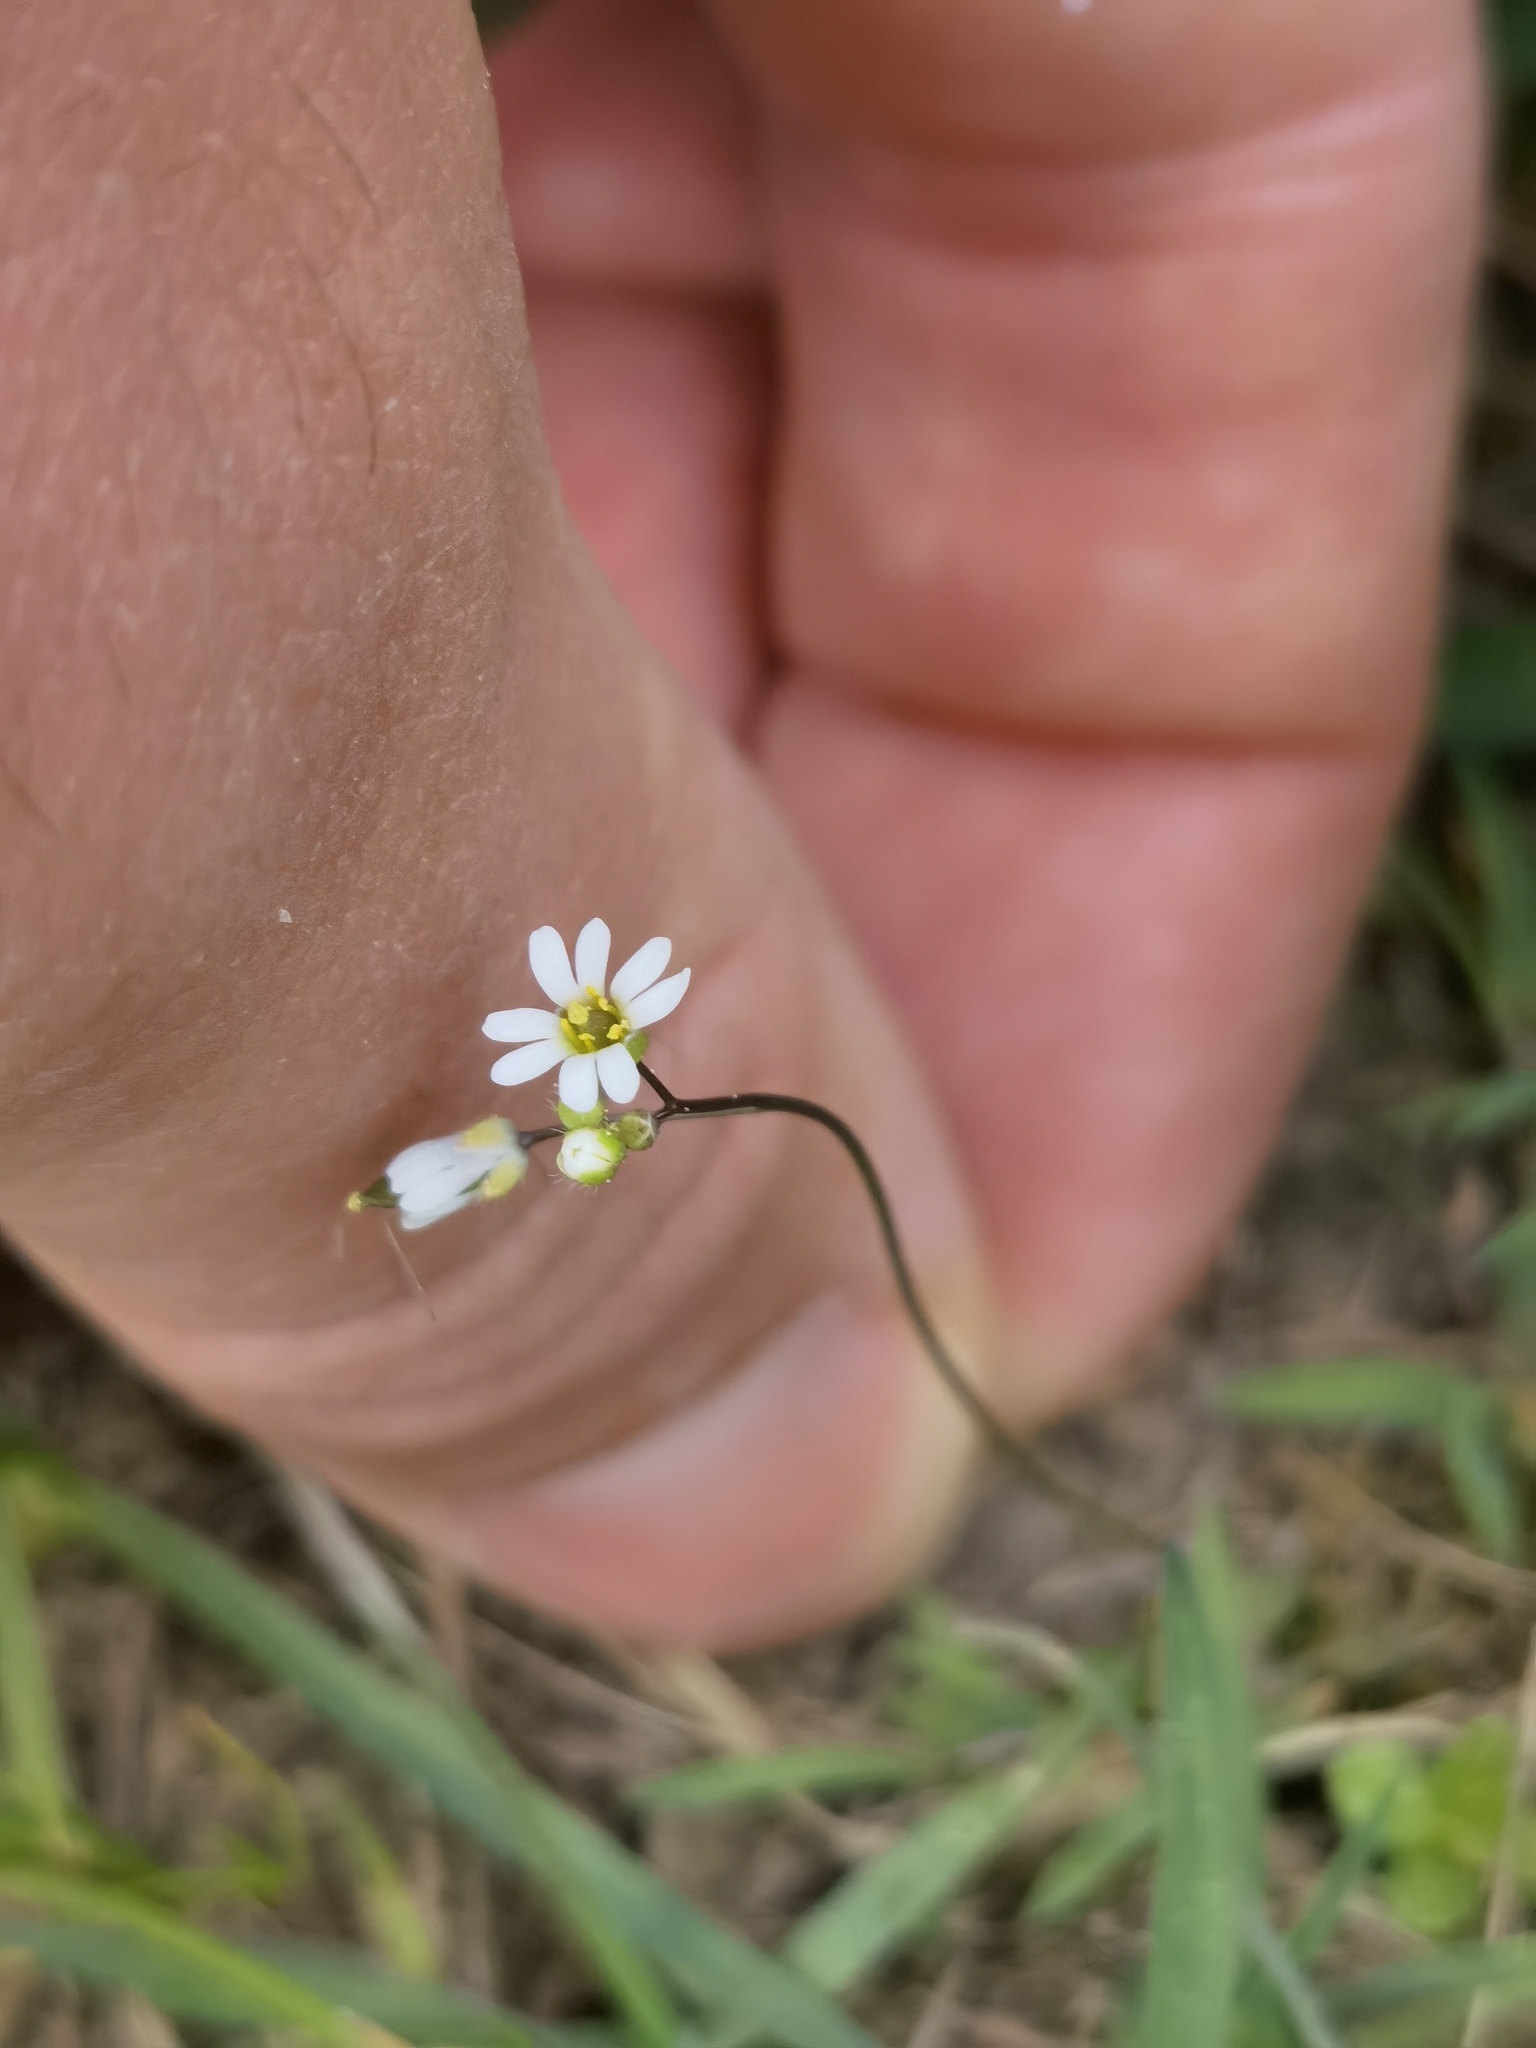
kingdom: Plantae
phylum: Tracheophyta
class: Magnoliopsida
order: Brassicales
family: Brassicaceae
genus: Draba
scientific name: Draba verna
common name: Spring draba
